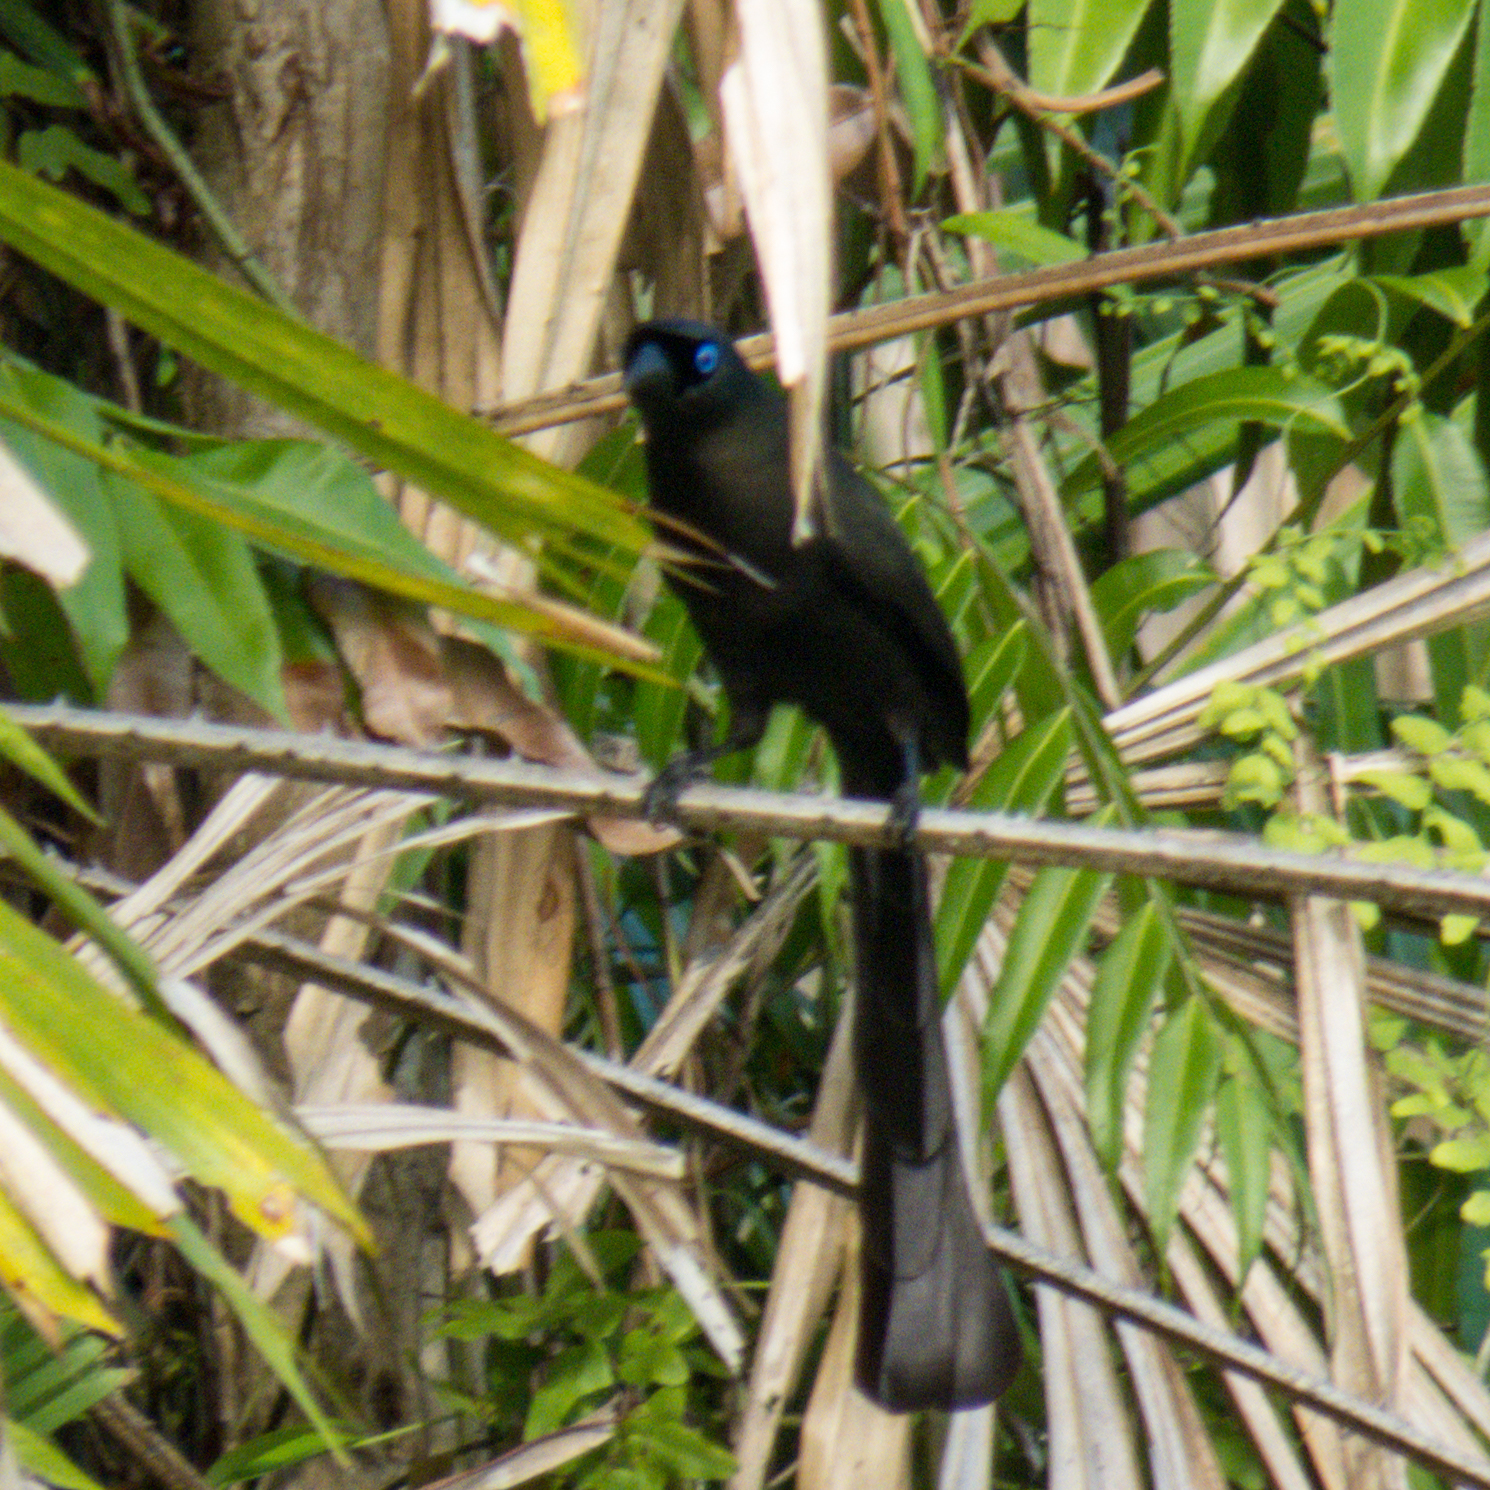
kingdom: Animalia
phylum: Chordata
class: Aves
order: Passeriformes
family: Corvidae
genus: Crypsirina
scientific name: Crypsirina temia
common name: Racket-tailed treepie
